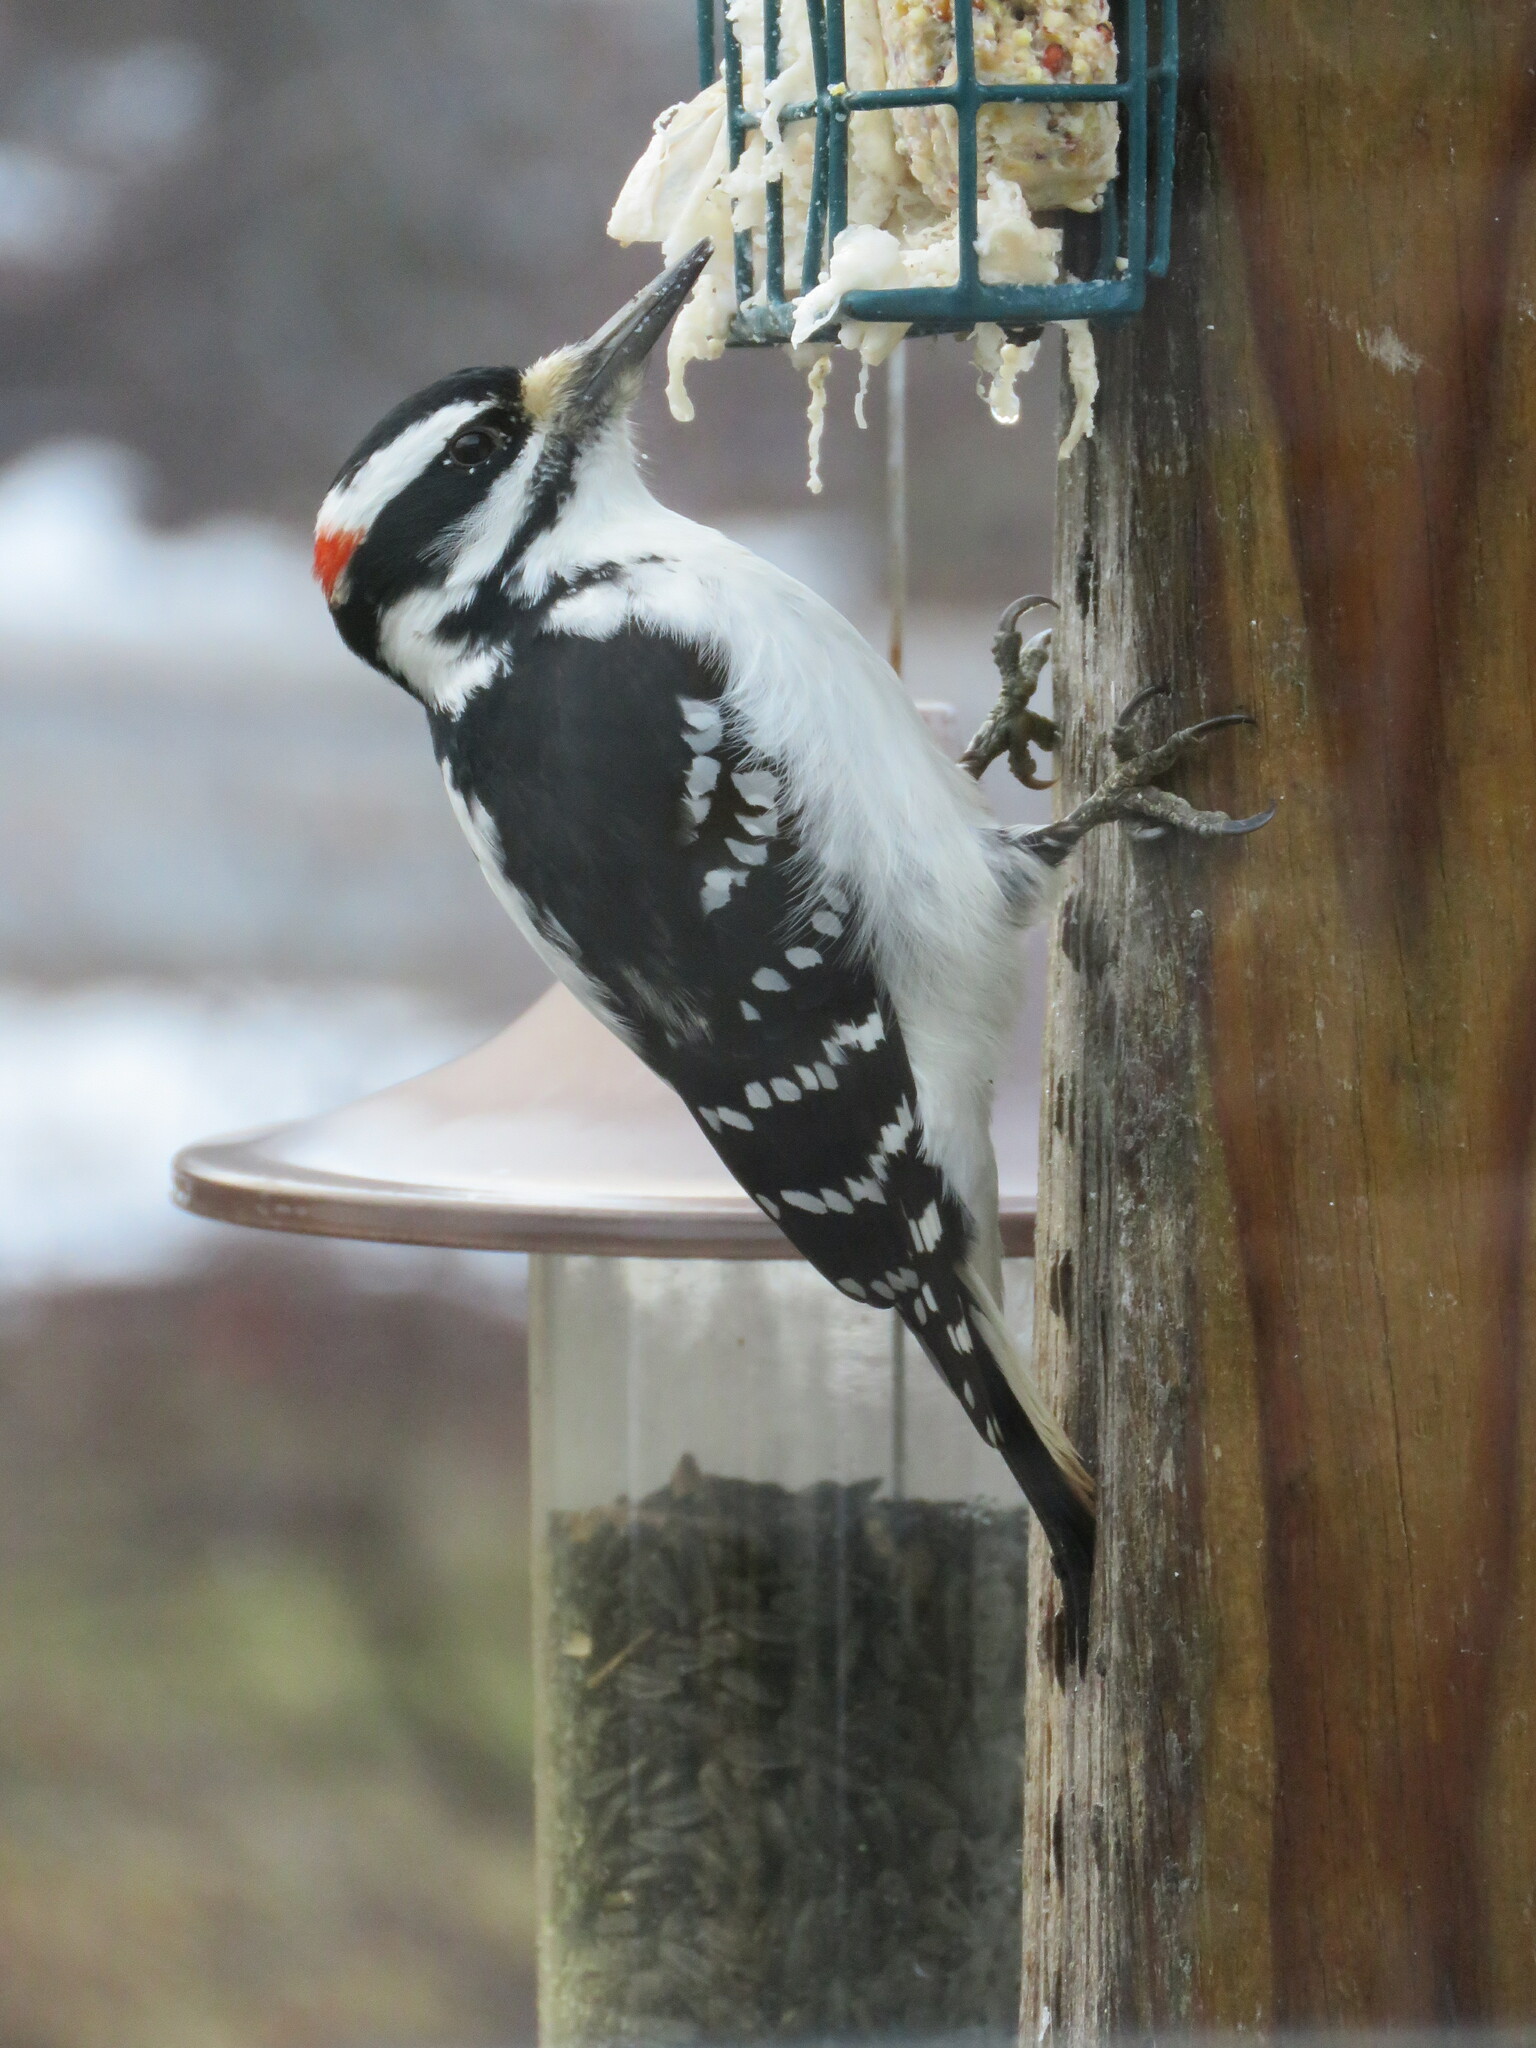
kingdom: Animalia
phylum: Chordata
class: Aves
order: Piciformes
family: Picidae
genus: Leuconotopicus
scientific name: Leuconotopicus villosus
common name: Hairy woodpecker
